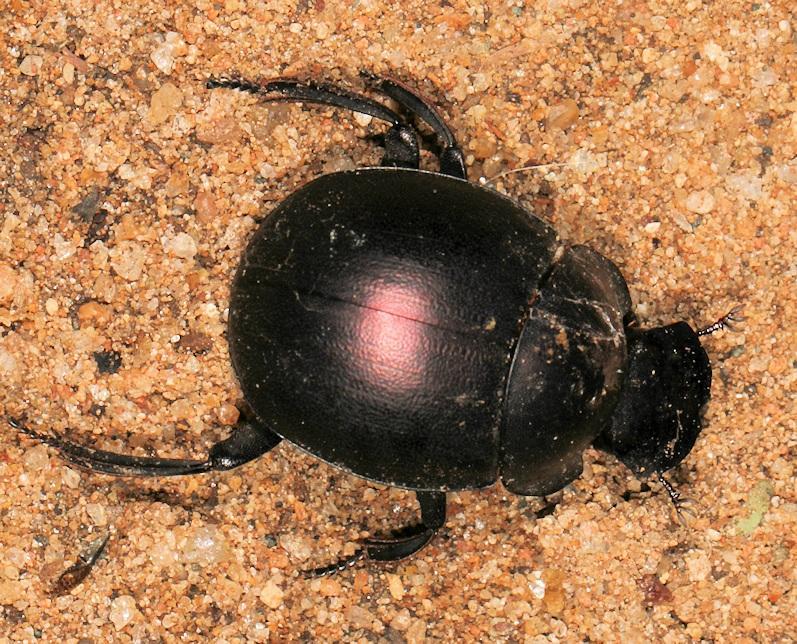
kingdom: Animalia
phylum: Arthropoda
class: Insecta
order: Coleoptera
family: Scarabaeidae
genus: Chalconotus
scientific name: Chalconotus convexus
